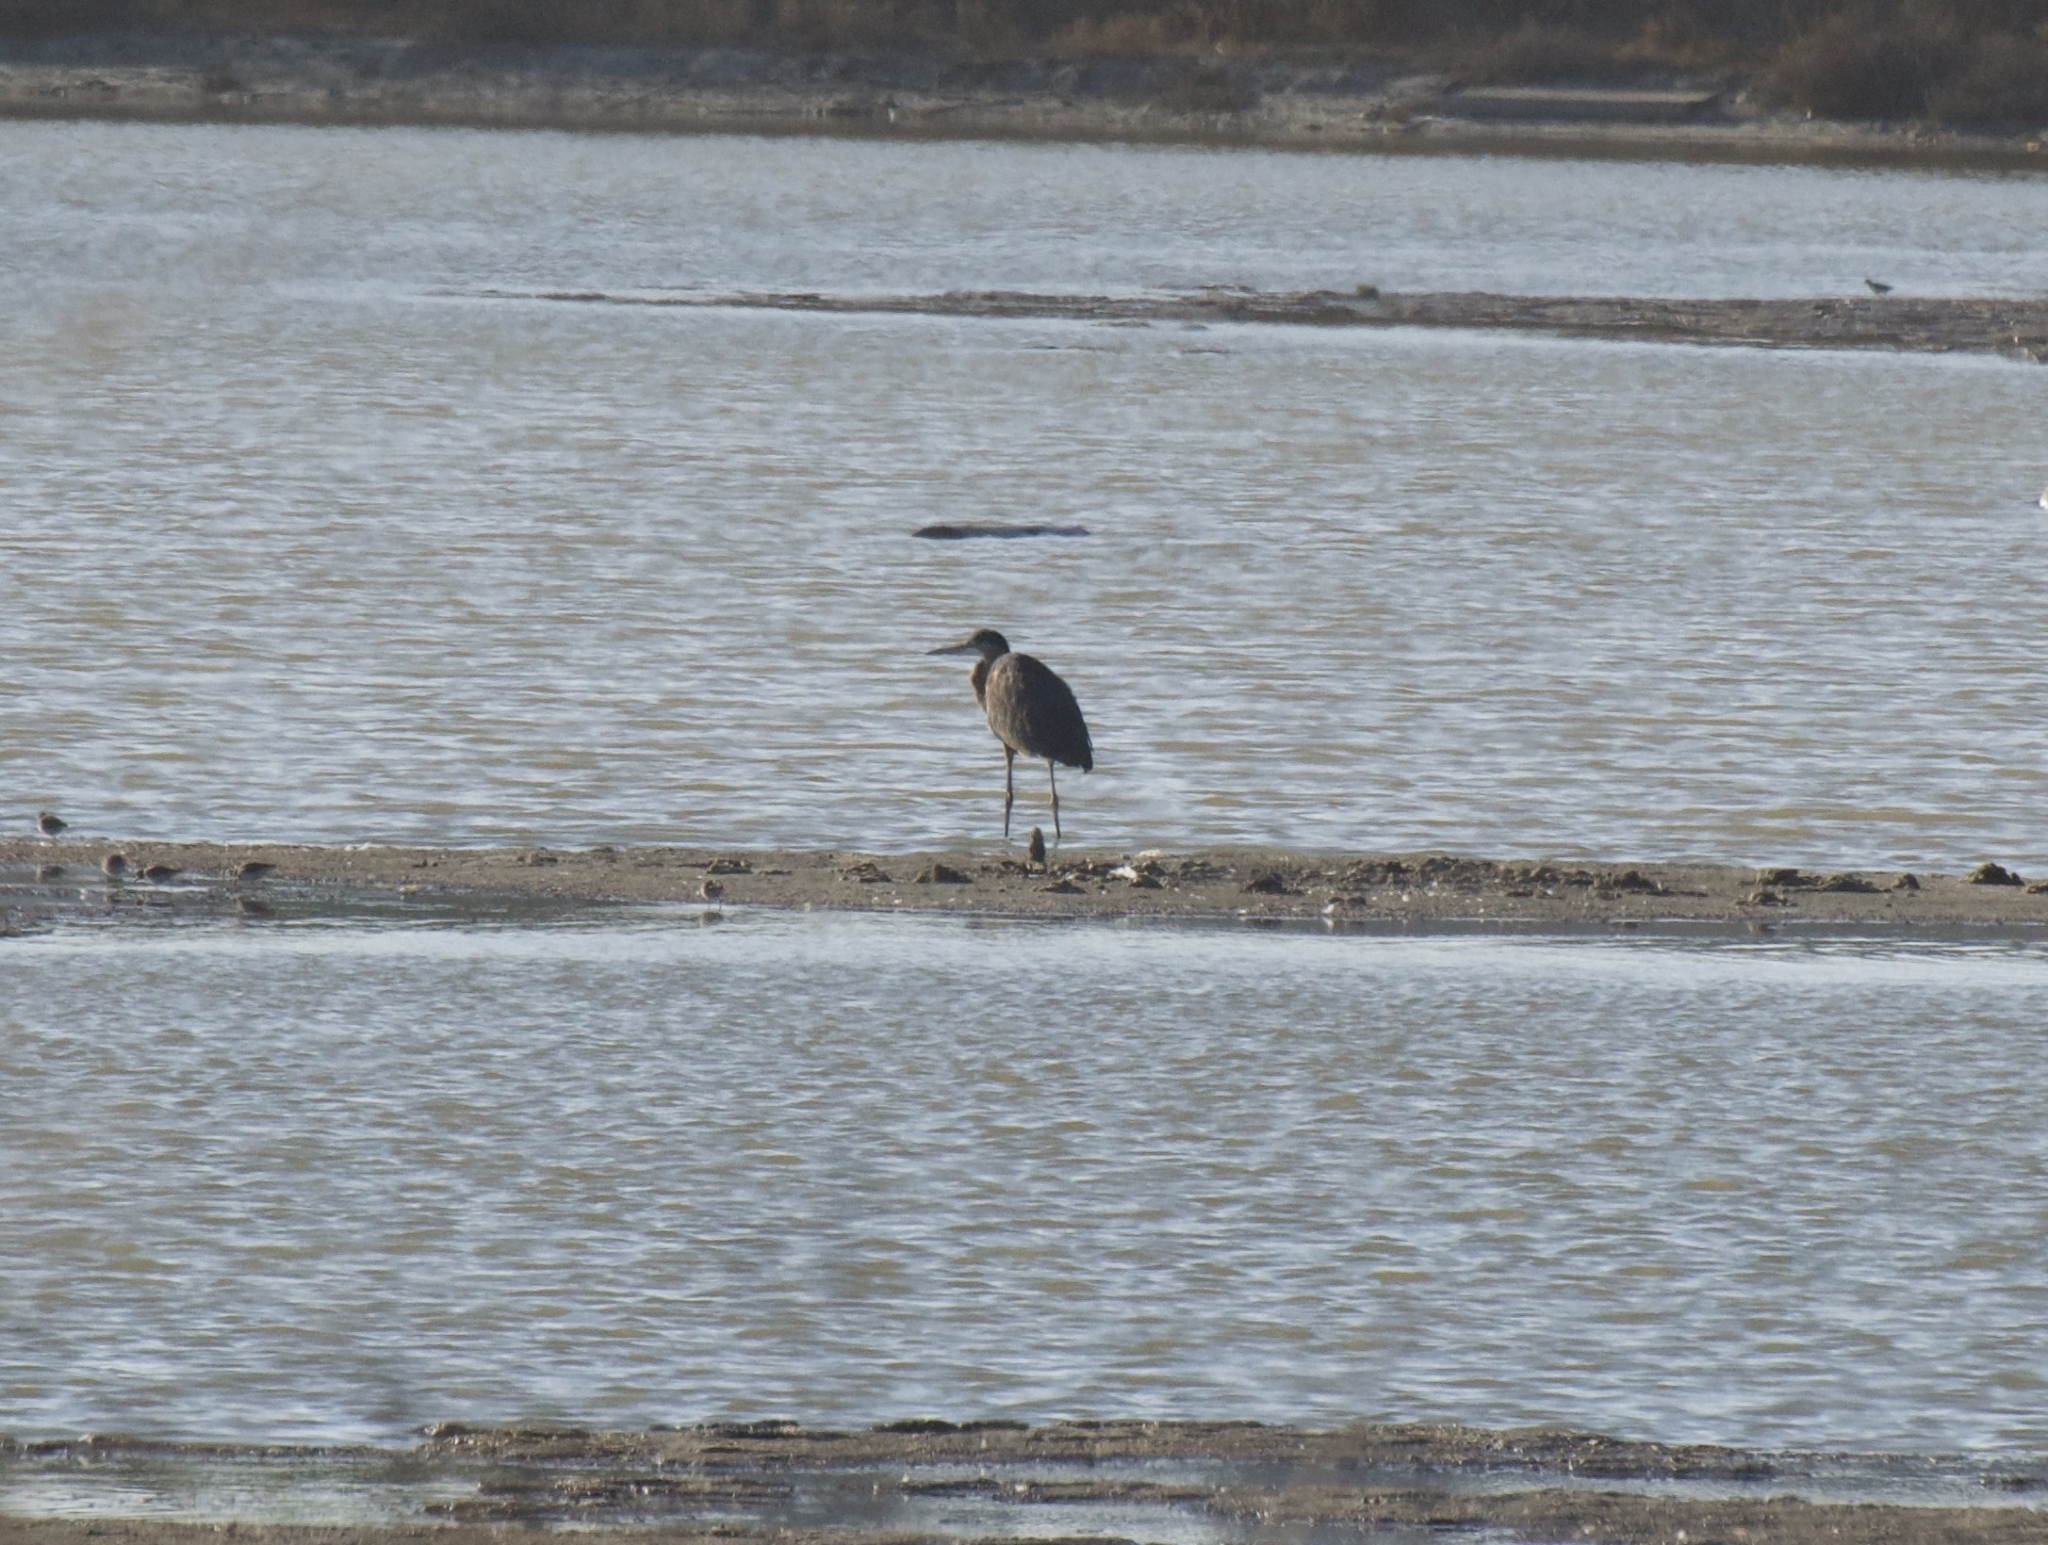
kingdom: Animalia
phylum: Chordata
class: Aves
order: Pelecaniformes
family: Ardeidae
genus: Ardea
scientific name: Ardea herodias
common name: Great blue heron
